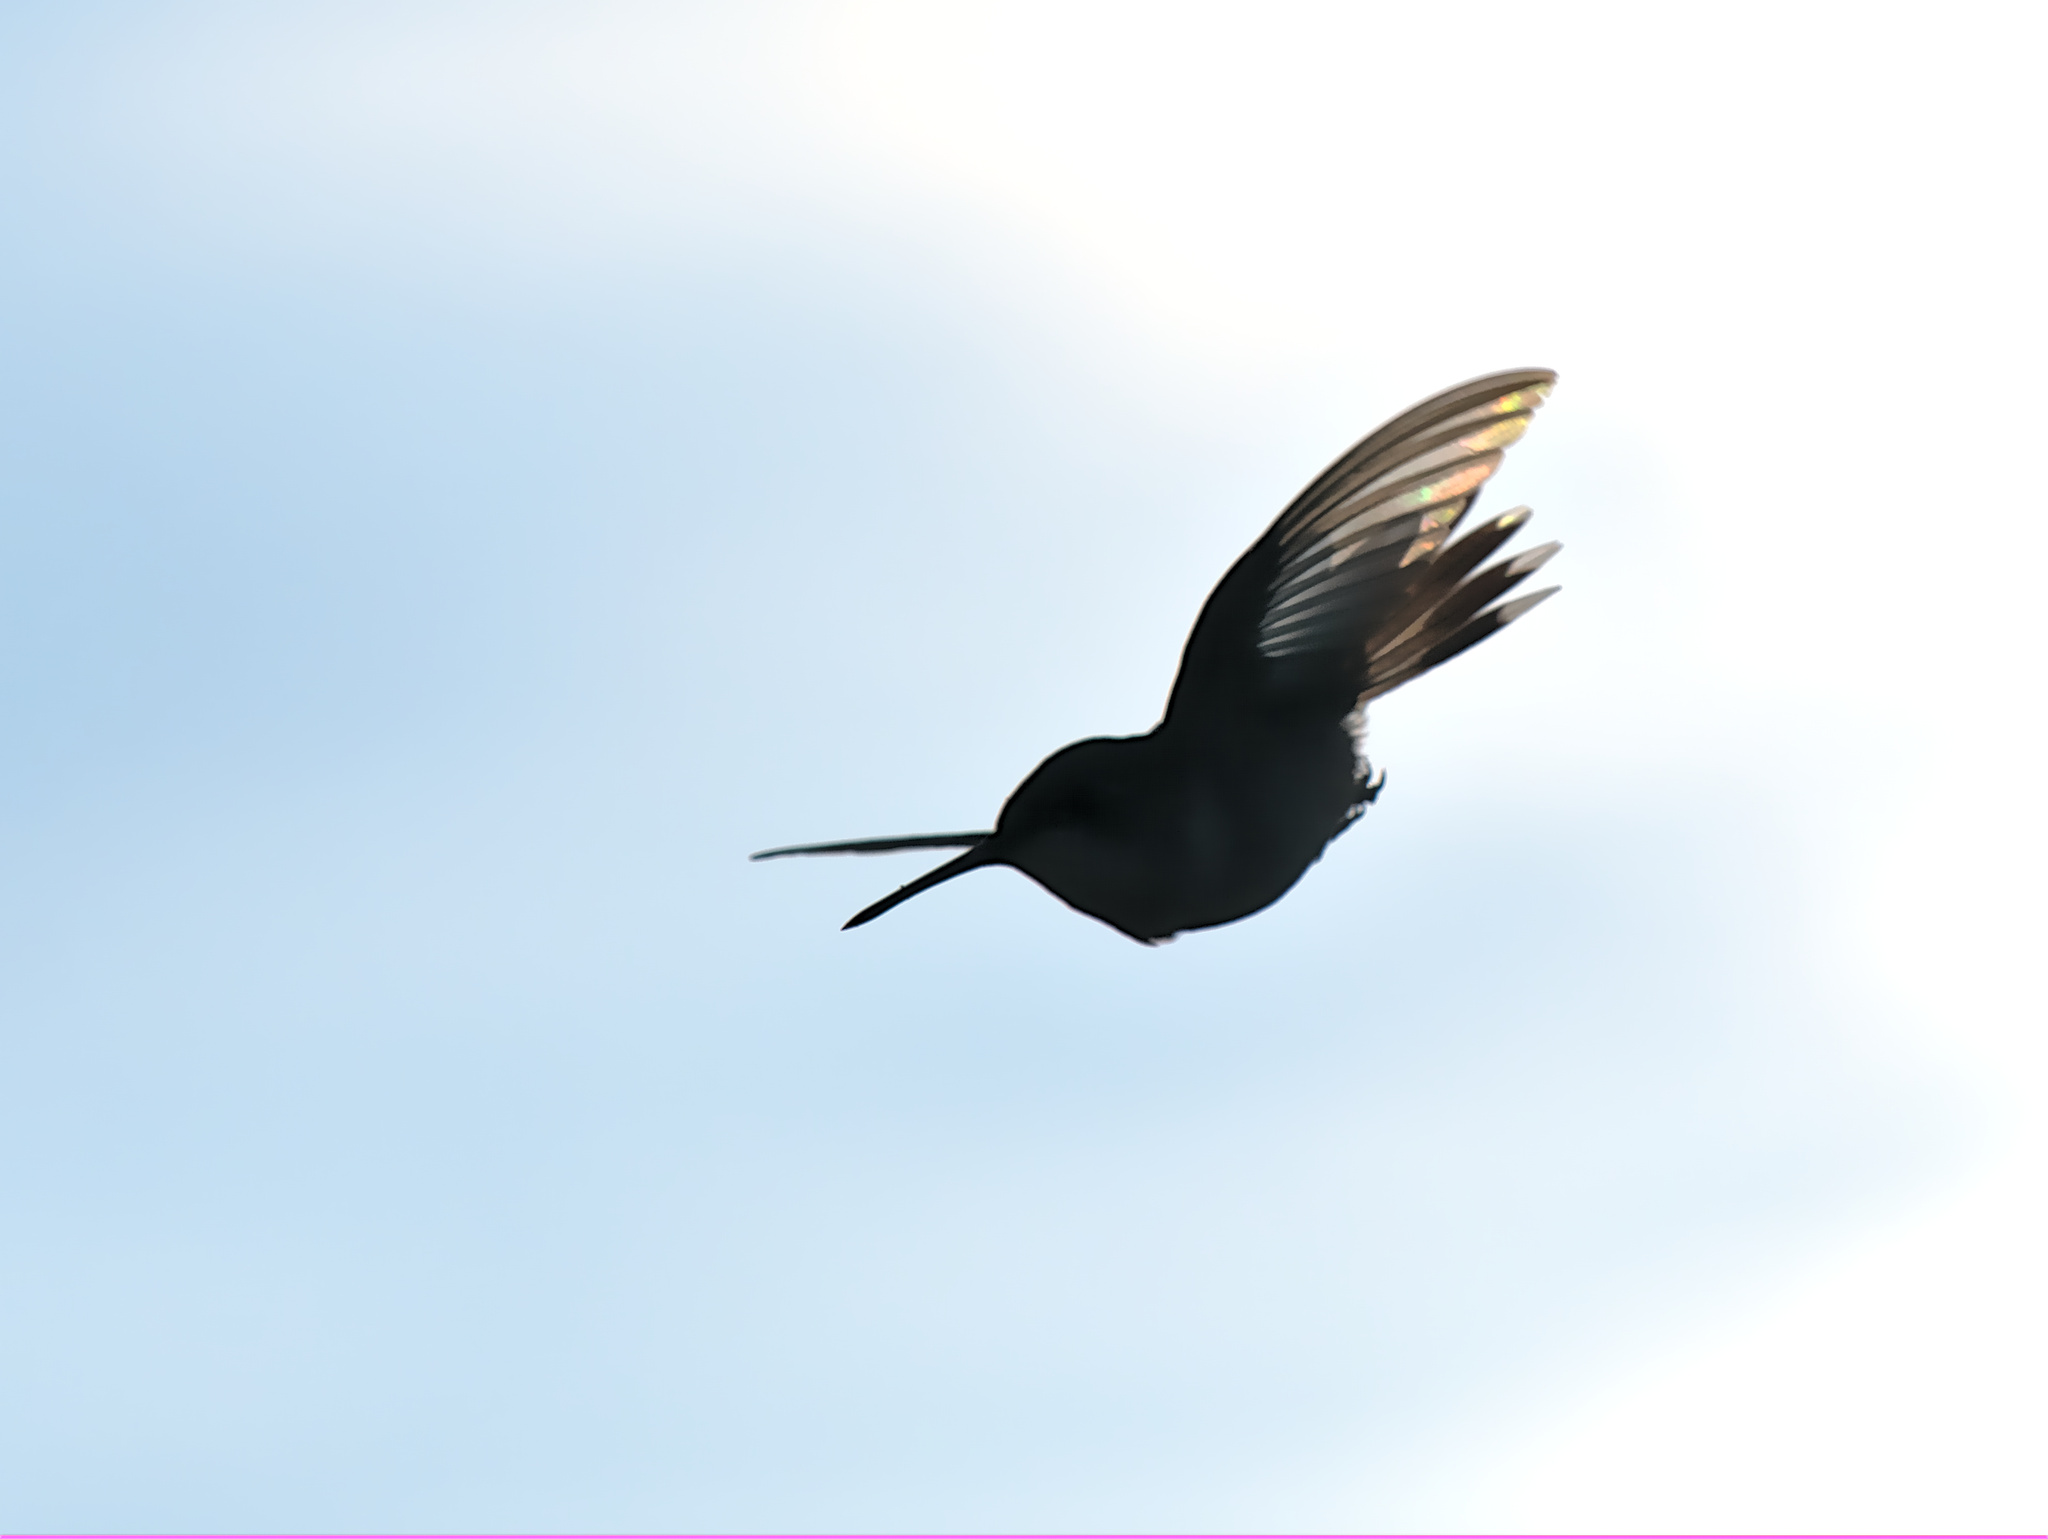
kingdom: Animalia
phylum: Chordata
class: Aves
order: Apodiformes
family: Trochilidae
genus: Archilochus
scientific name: Archilochus colubris
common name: Ruby-throated hummingbird
